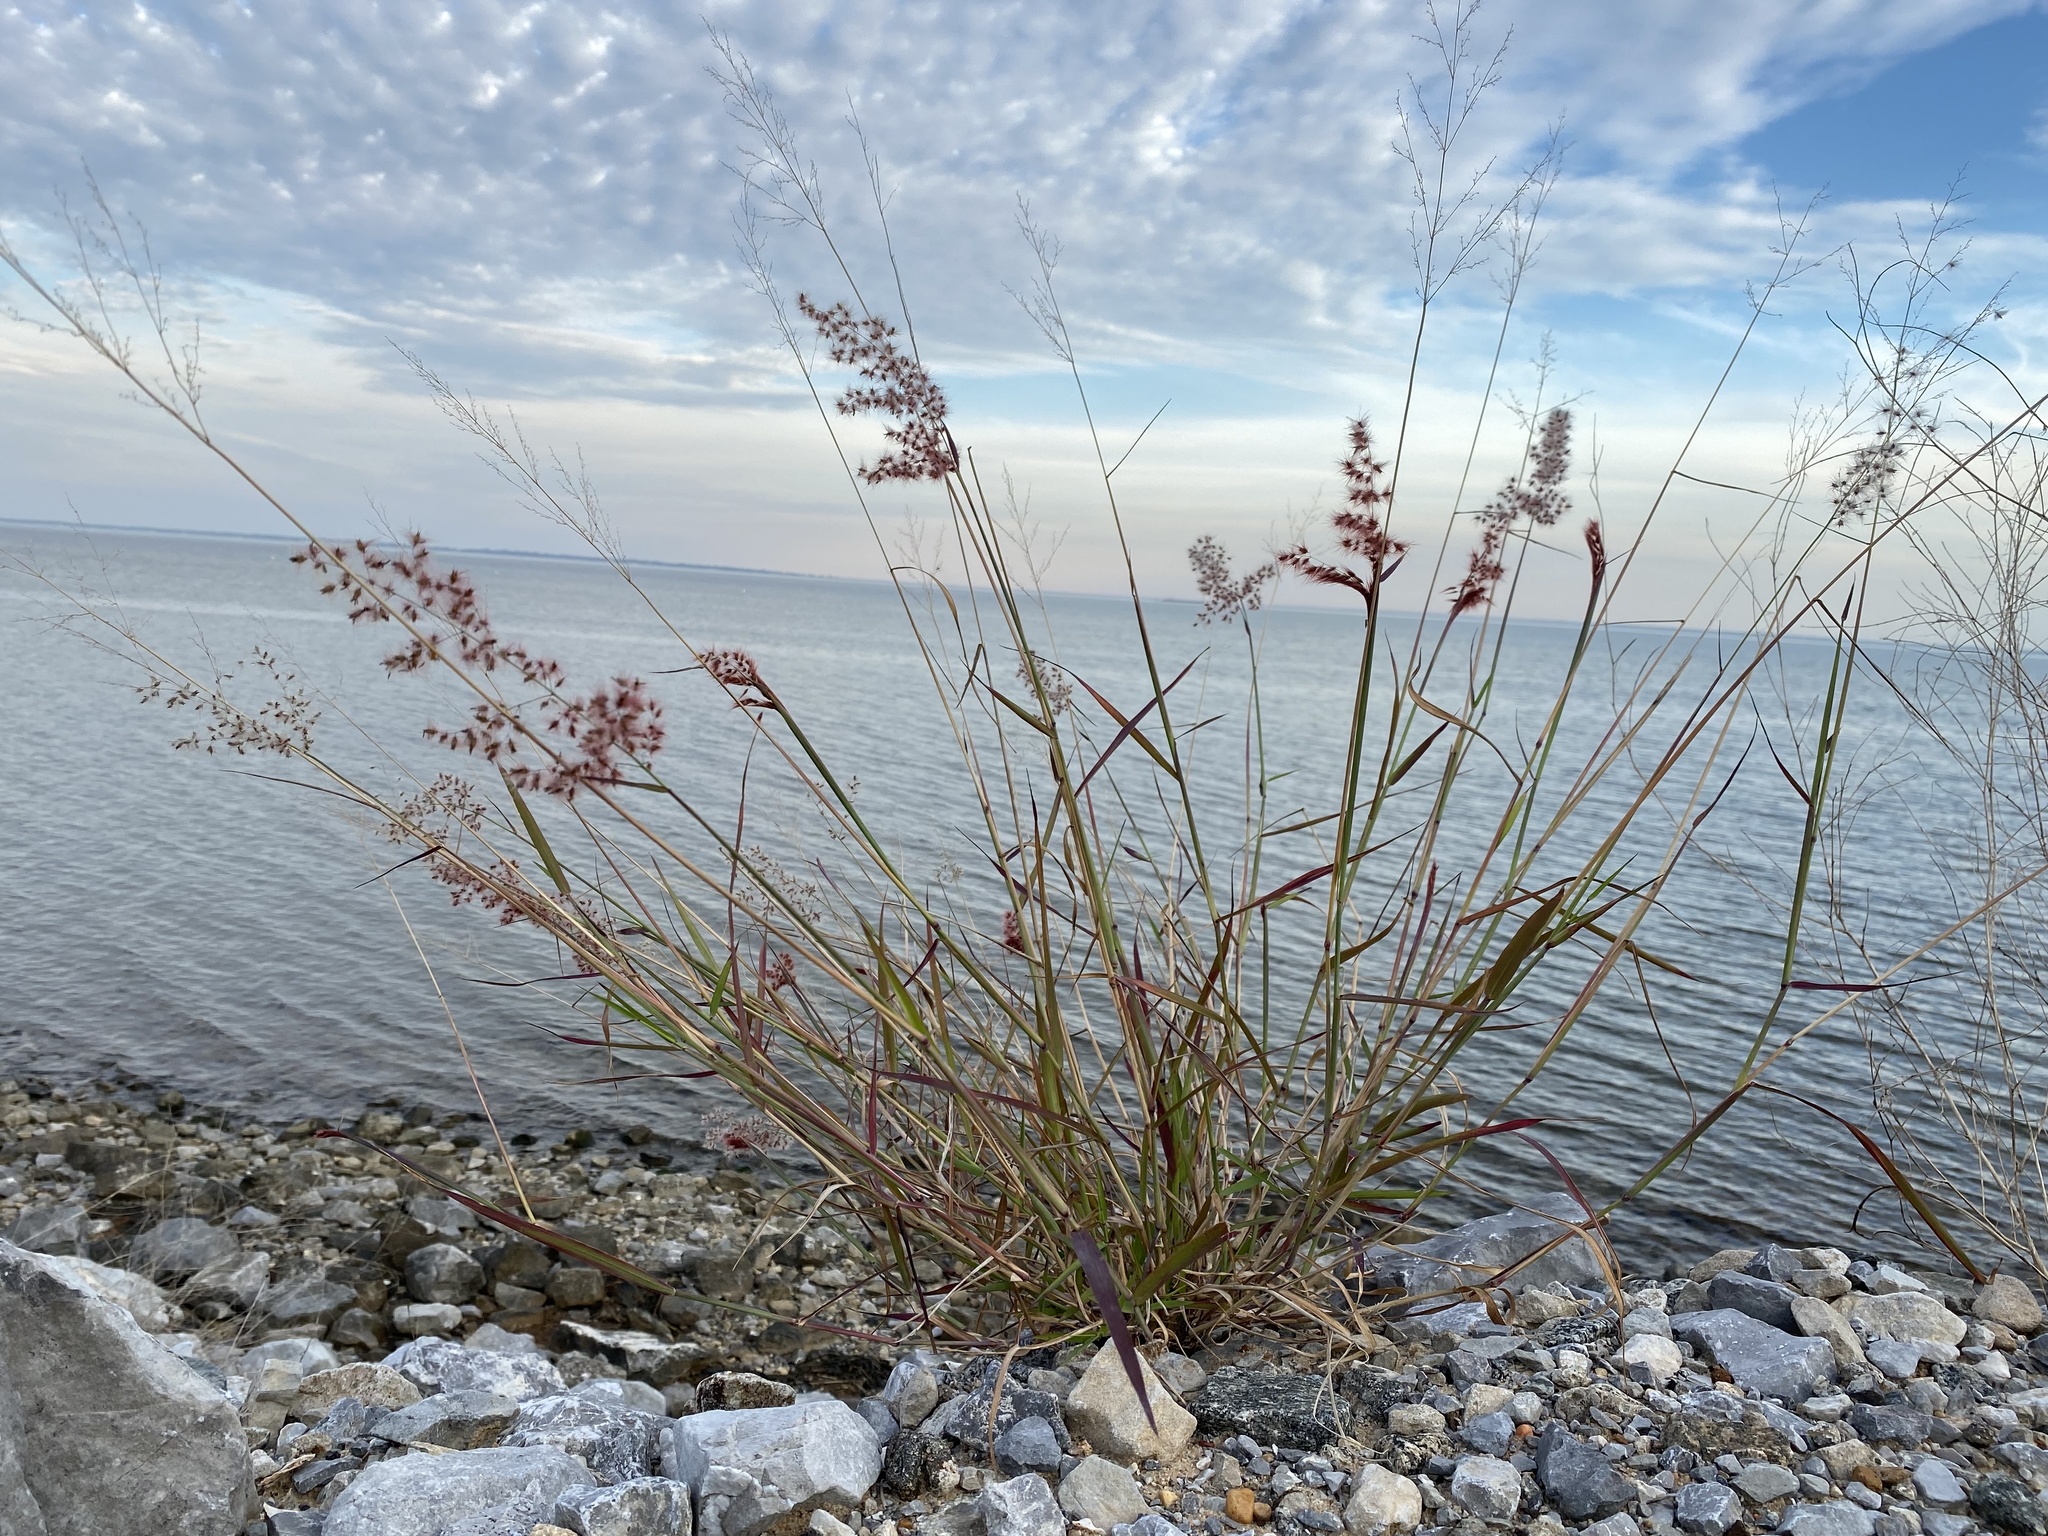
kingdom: Plantae
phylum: Tracheophyta
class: Liliopsida
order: Poales
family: Poaceae
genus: Melinis
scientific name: Melinis repens
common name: Rose natal grass
